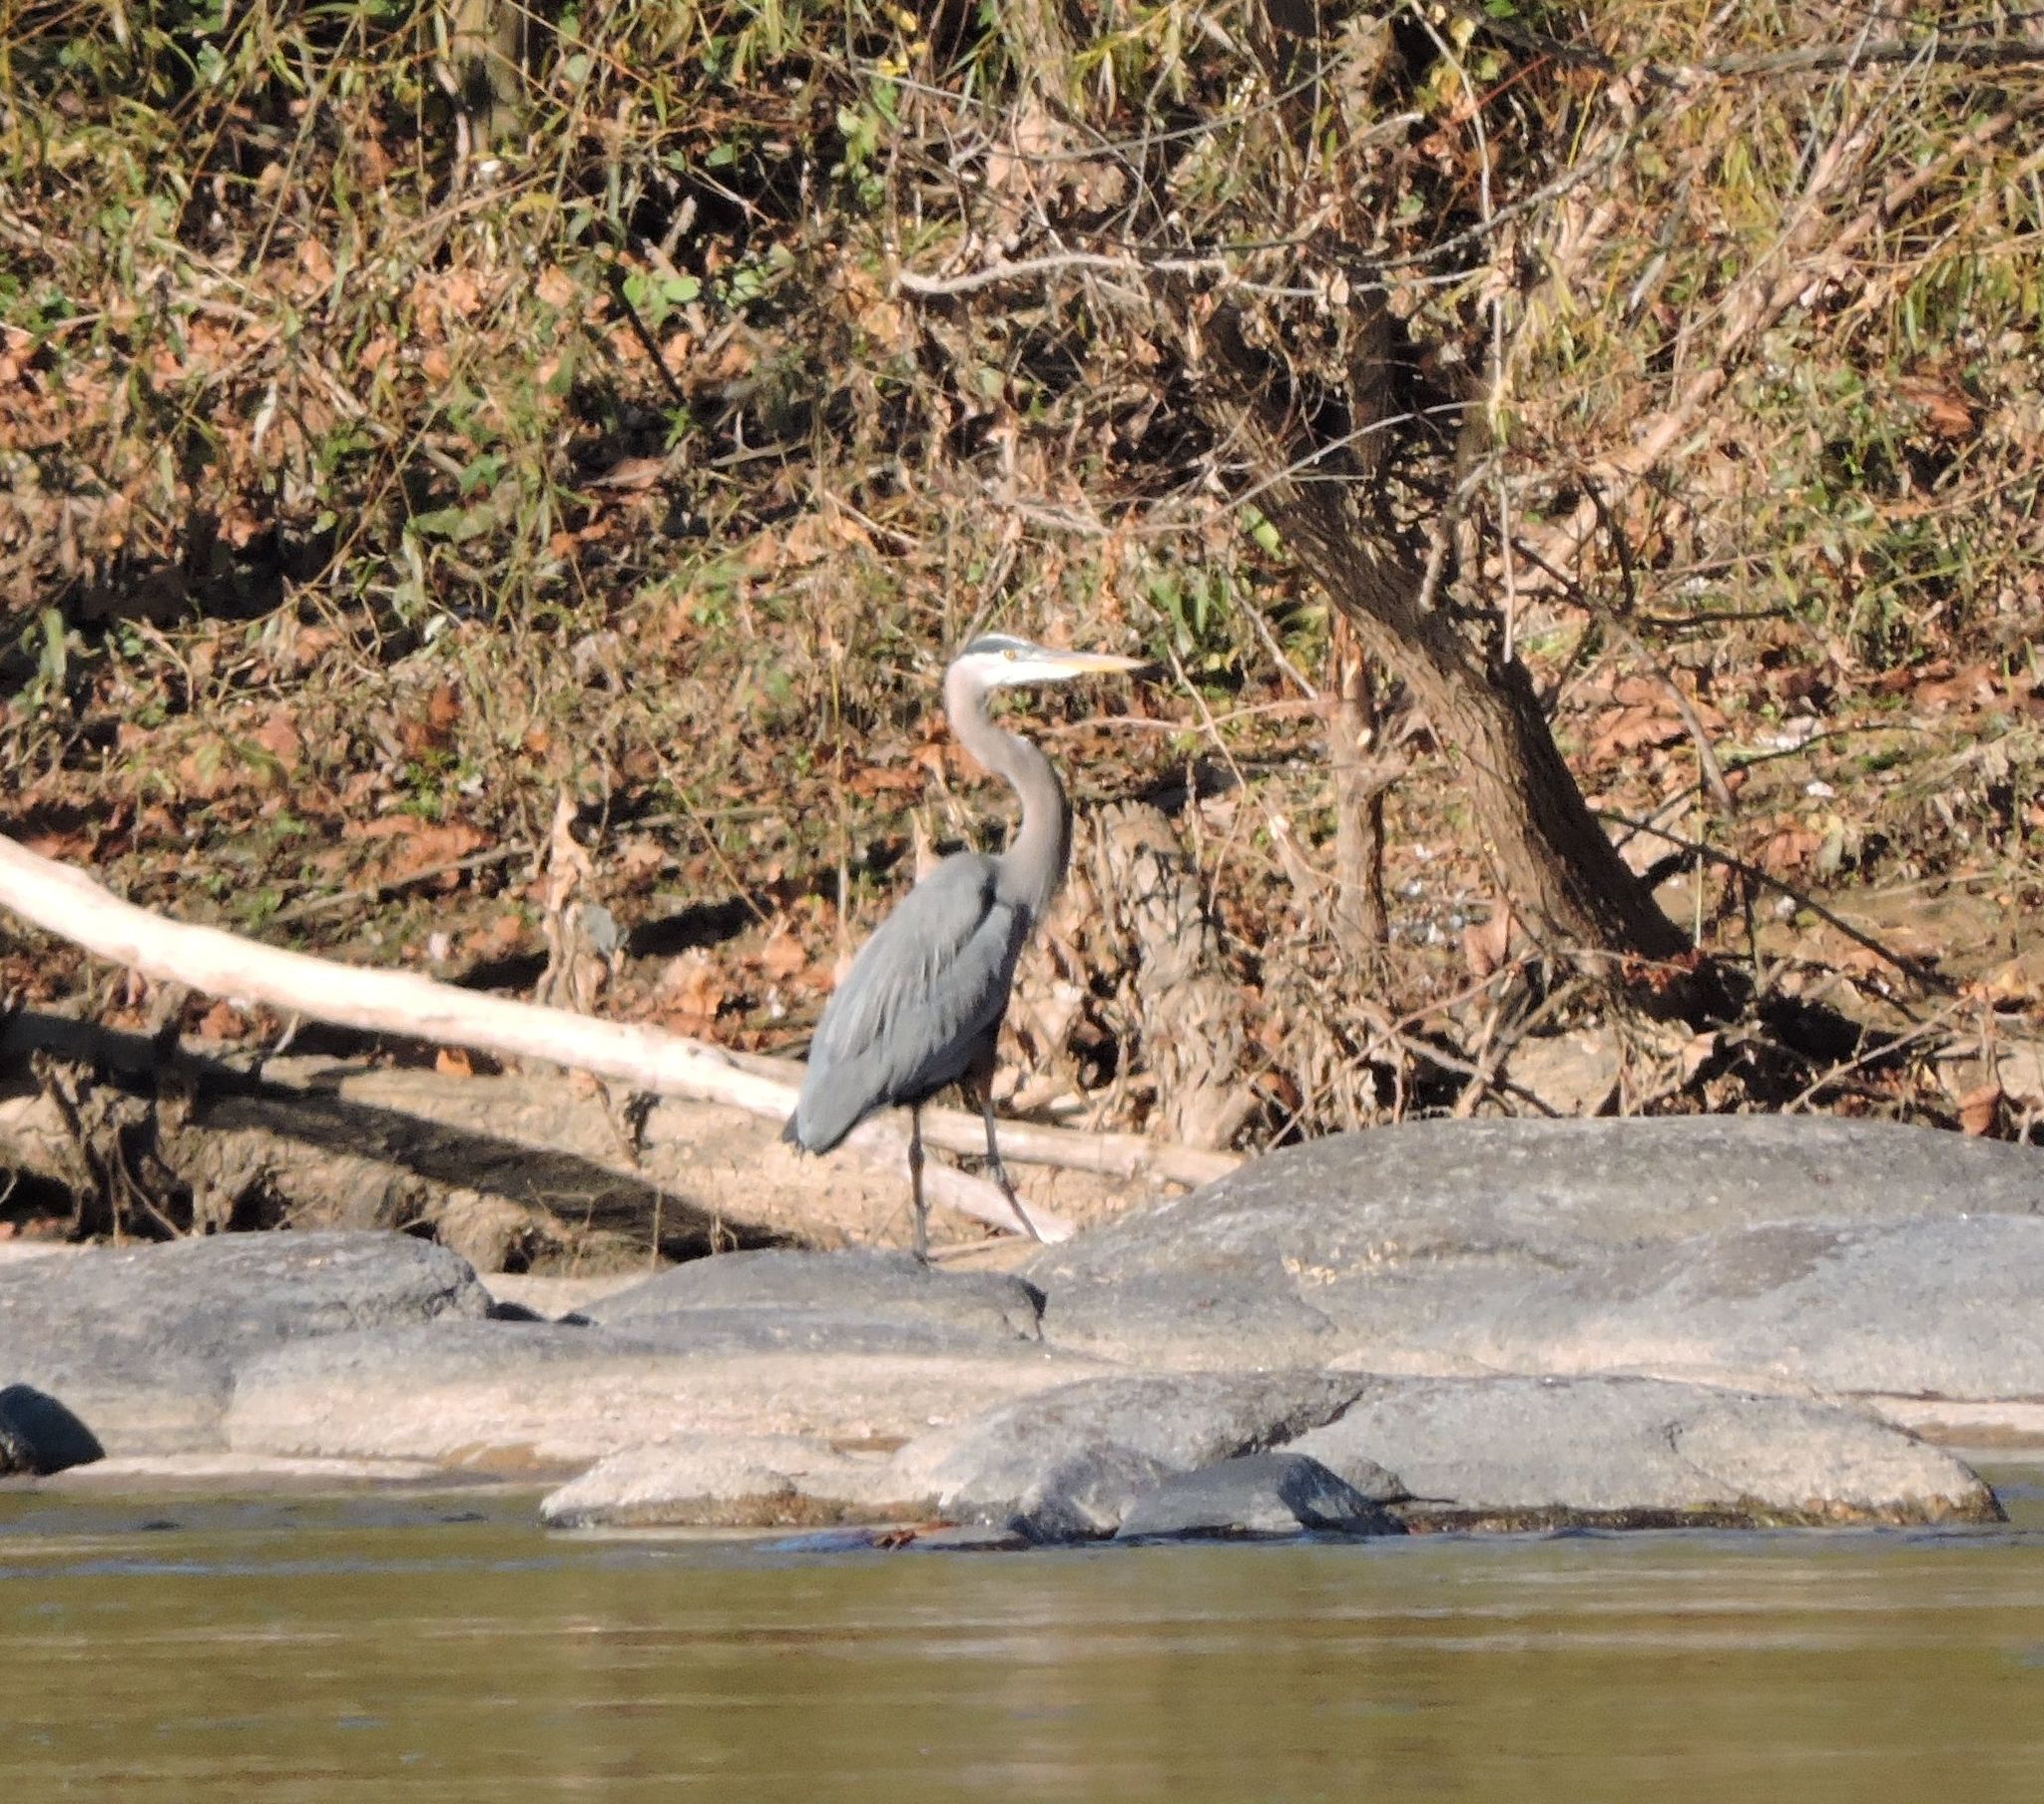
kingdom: Animalia
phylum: Chordata
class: Aves
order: Pelecaniformes
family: Ardeidae
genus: Ardea
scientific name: Ardea herodias
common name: Great blue heron
